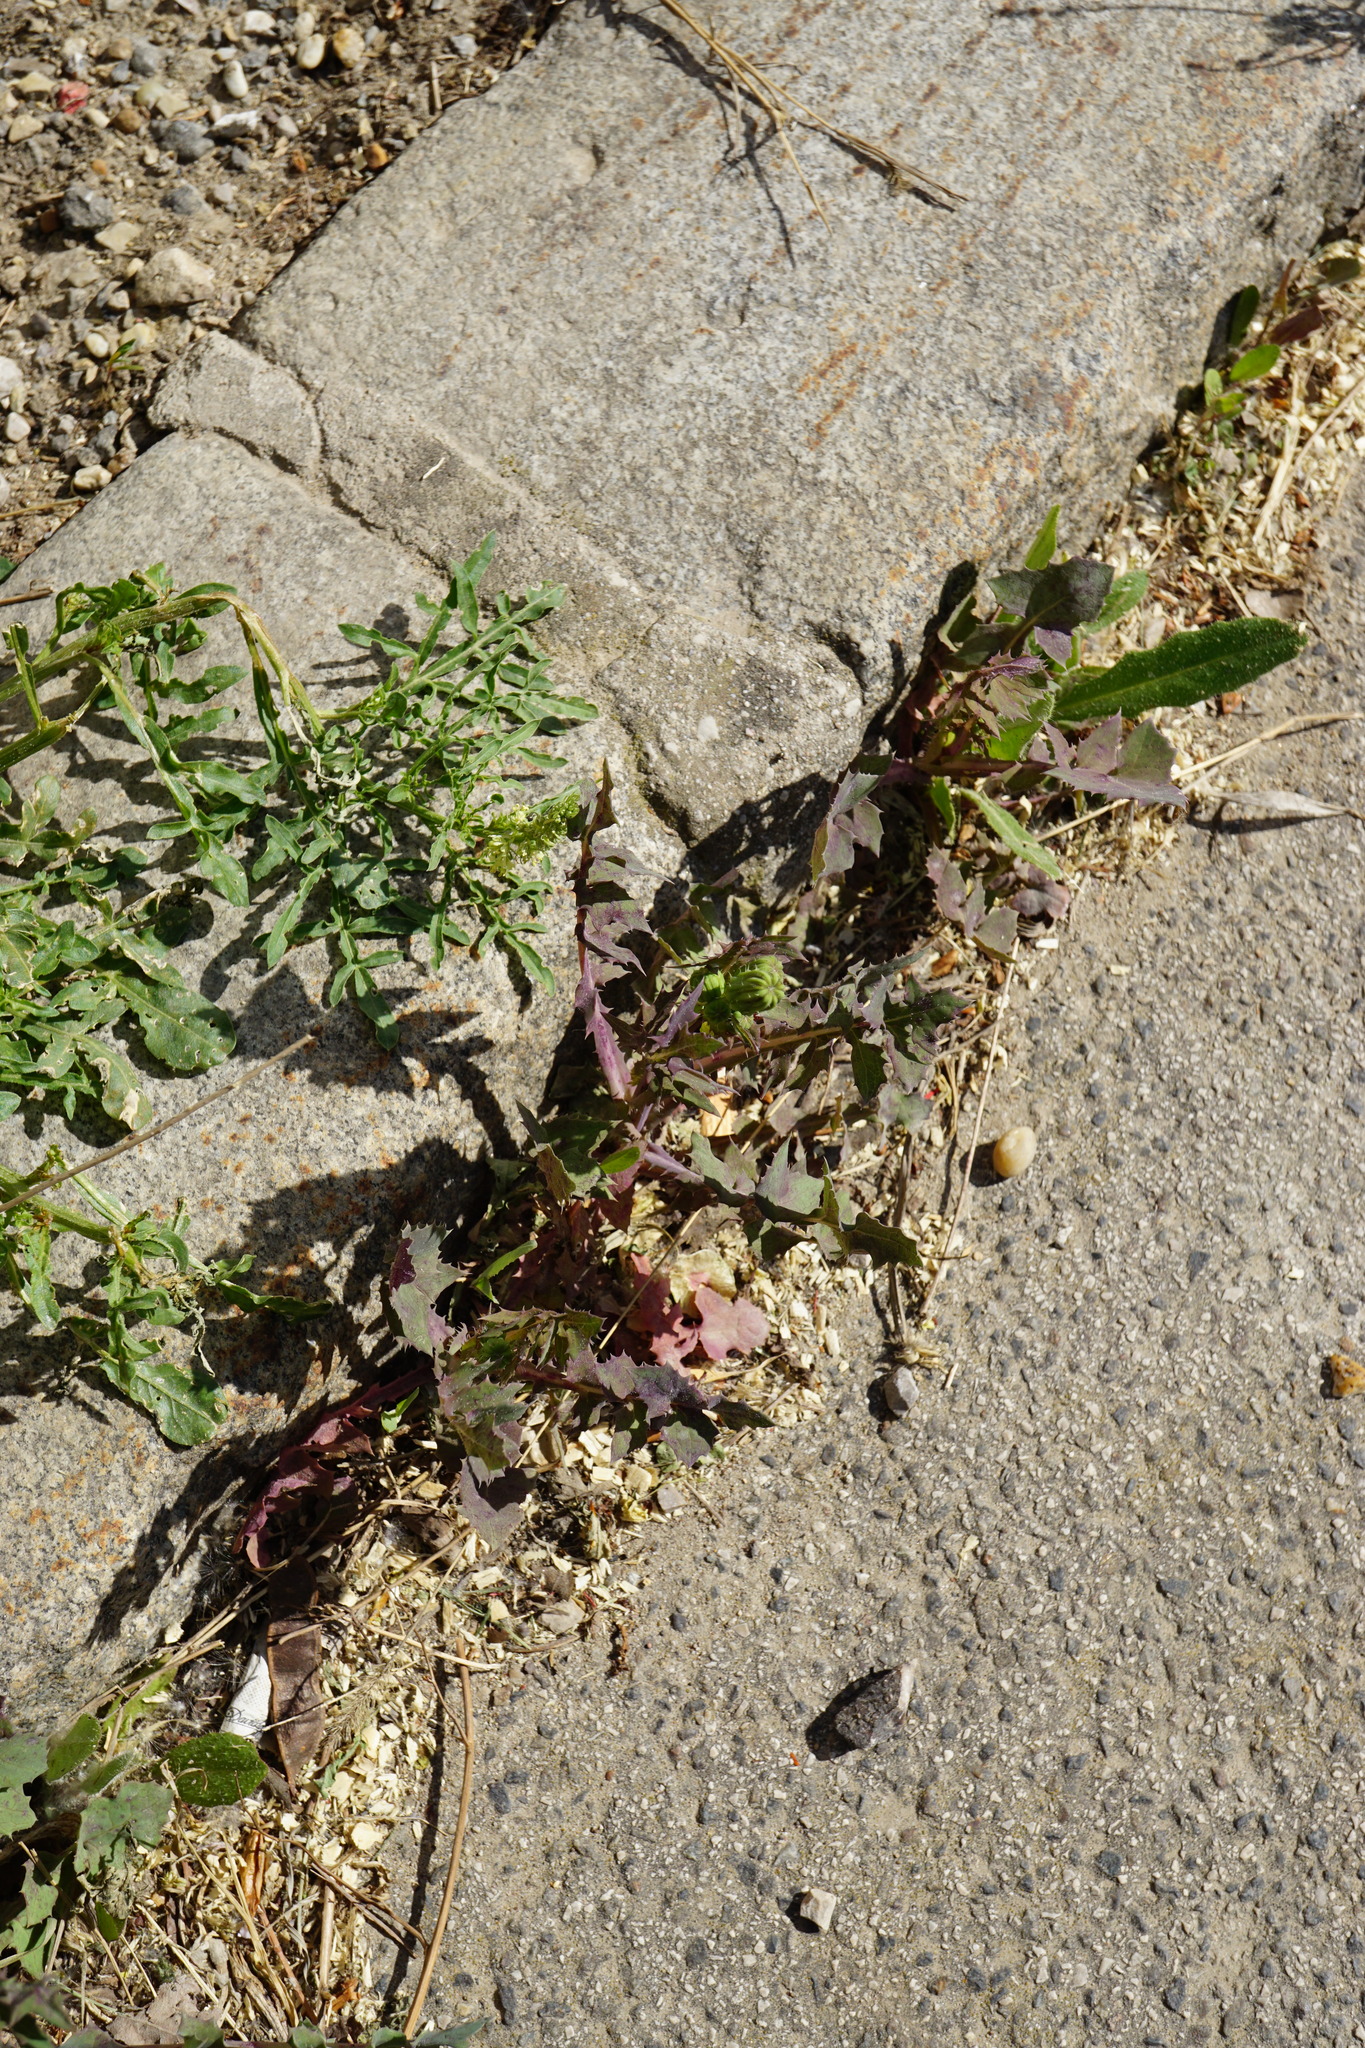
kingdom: Plantae
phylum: Tracheophyta
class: Magnoliopsida
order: Asterales
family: Asteraceae
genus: Sonchus
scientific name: Sonchus oleraceus
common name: Common sowthistle
